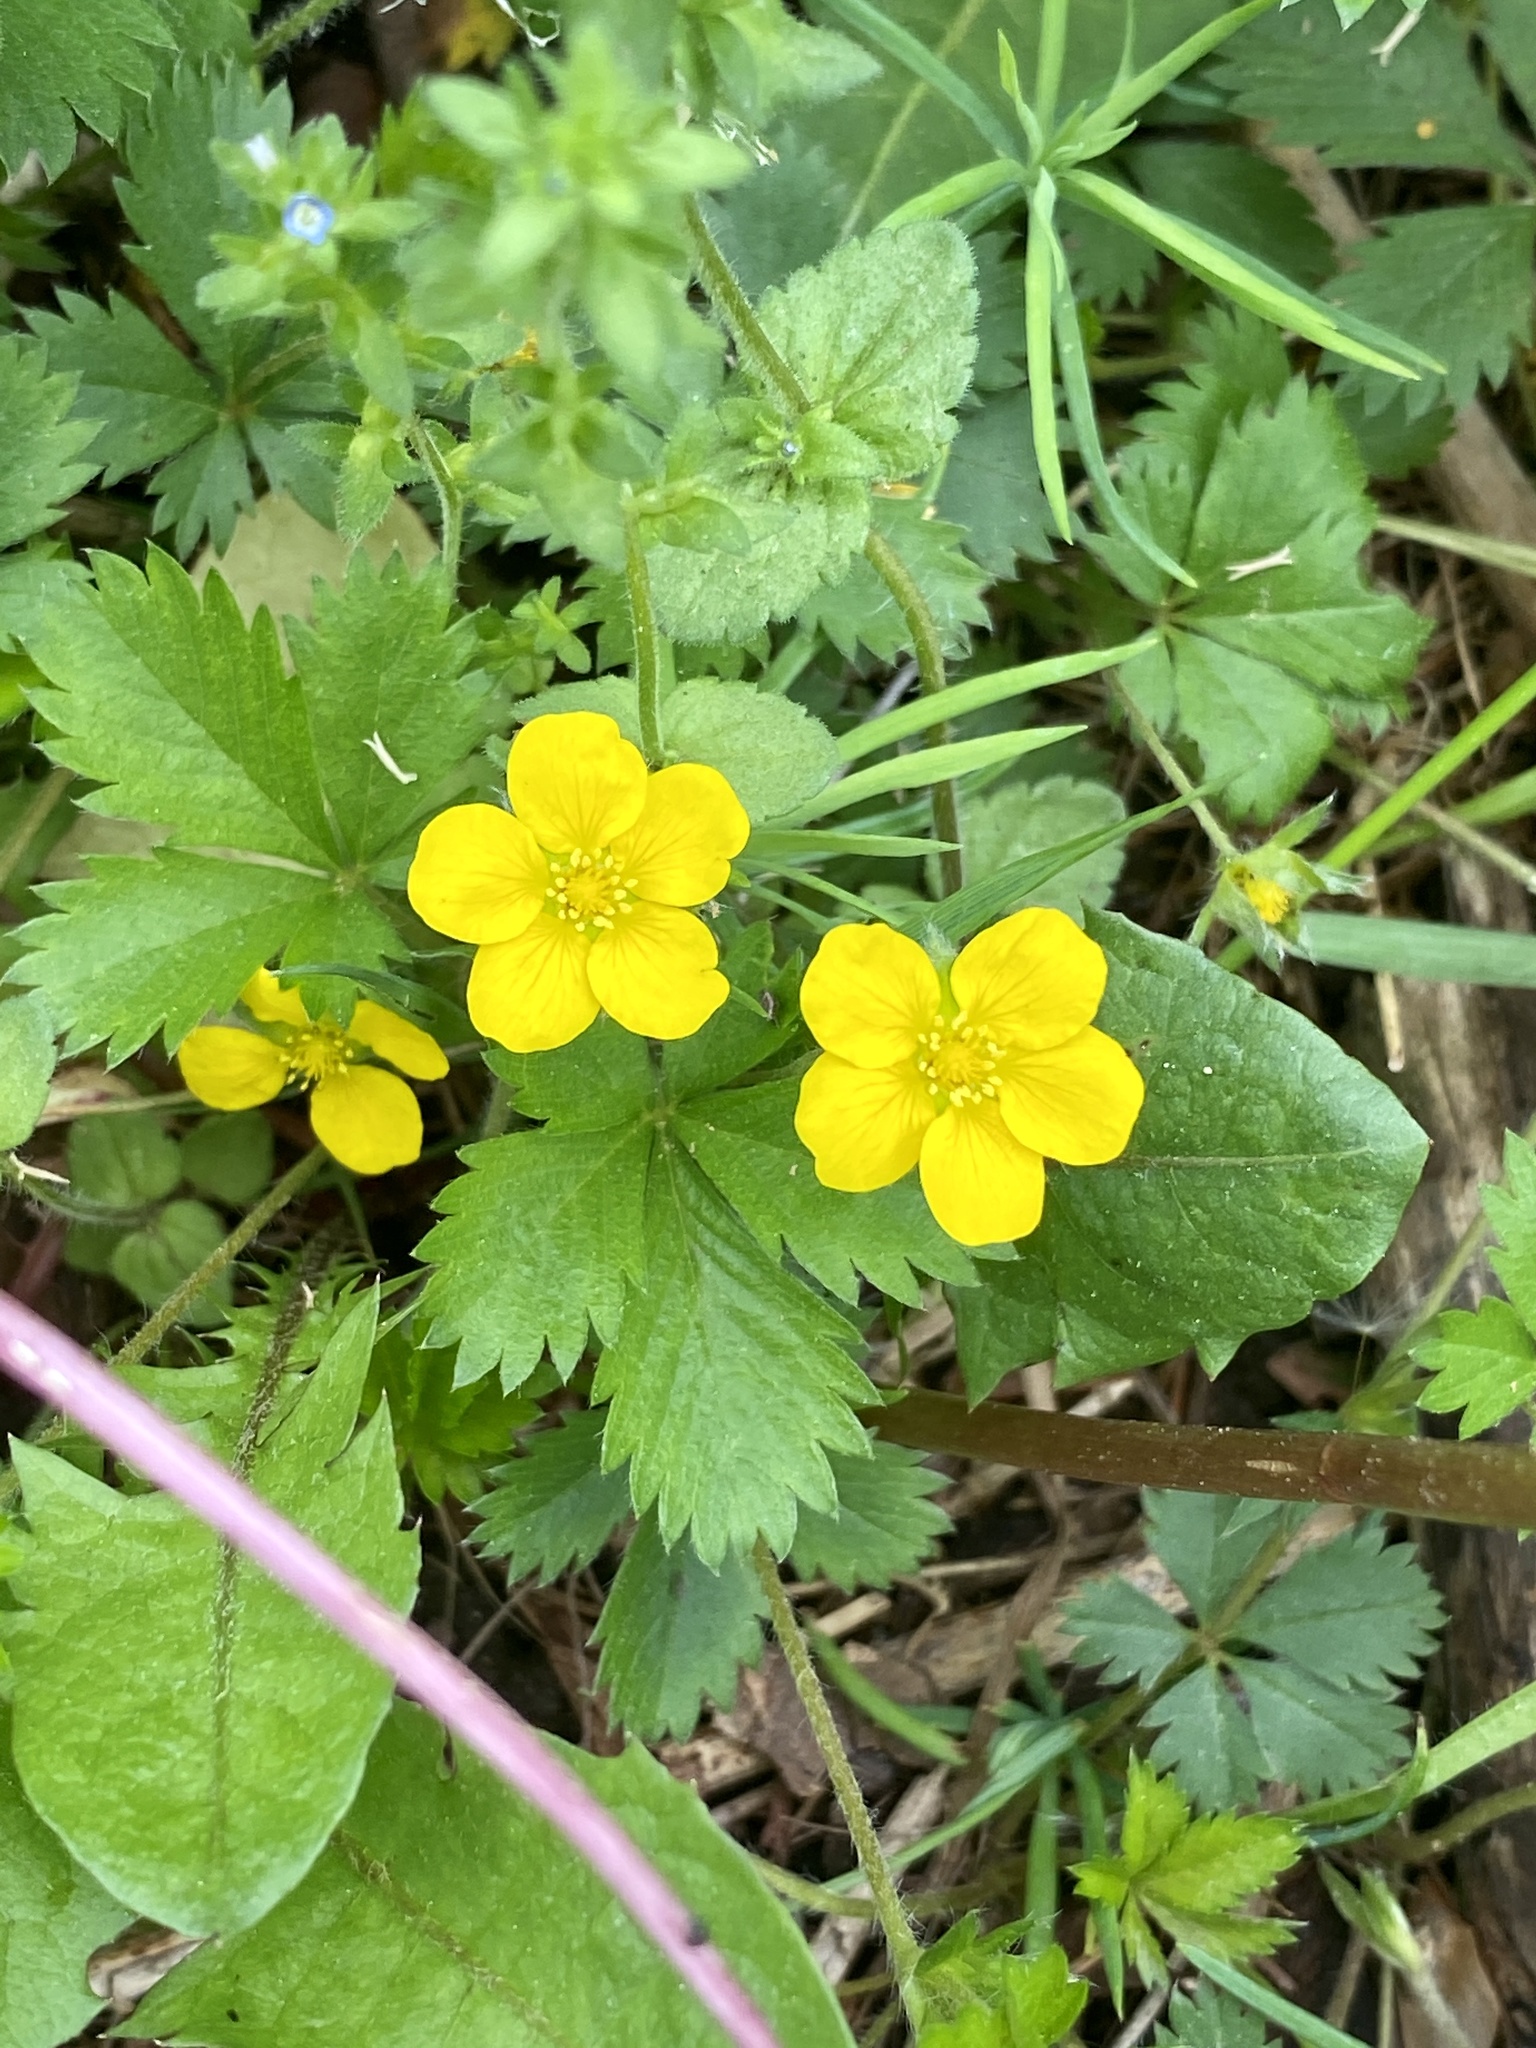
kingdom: Plantae
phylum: Tracheophyta
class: Magnoliopsida
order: Rosales
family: Rosaceae
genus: Potentilla
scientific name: Potentilla canadensis
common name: Canada cinquefoil
